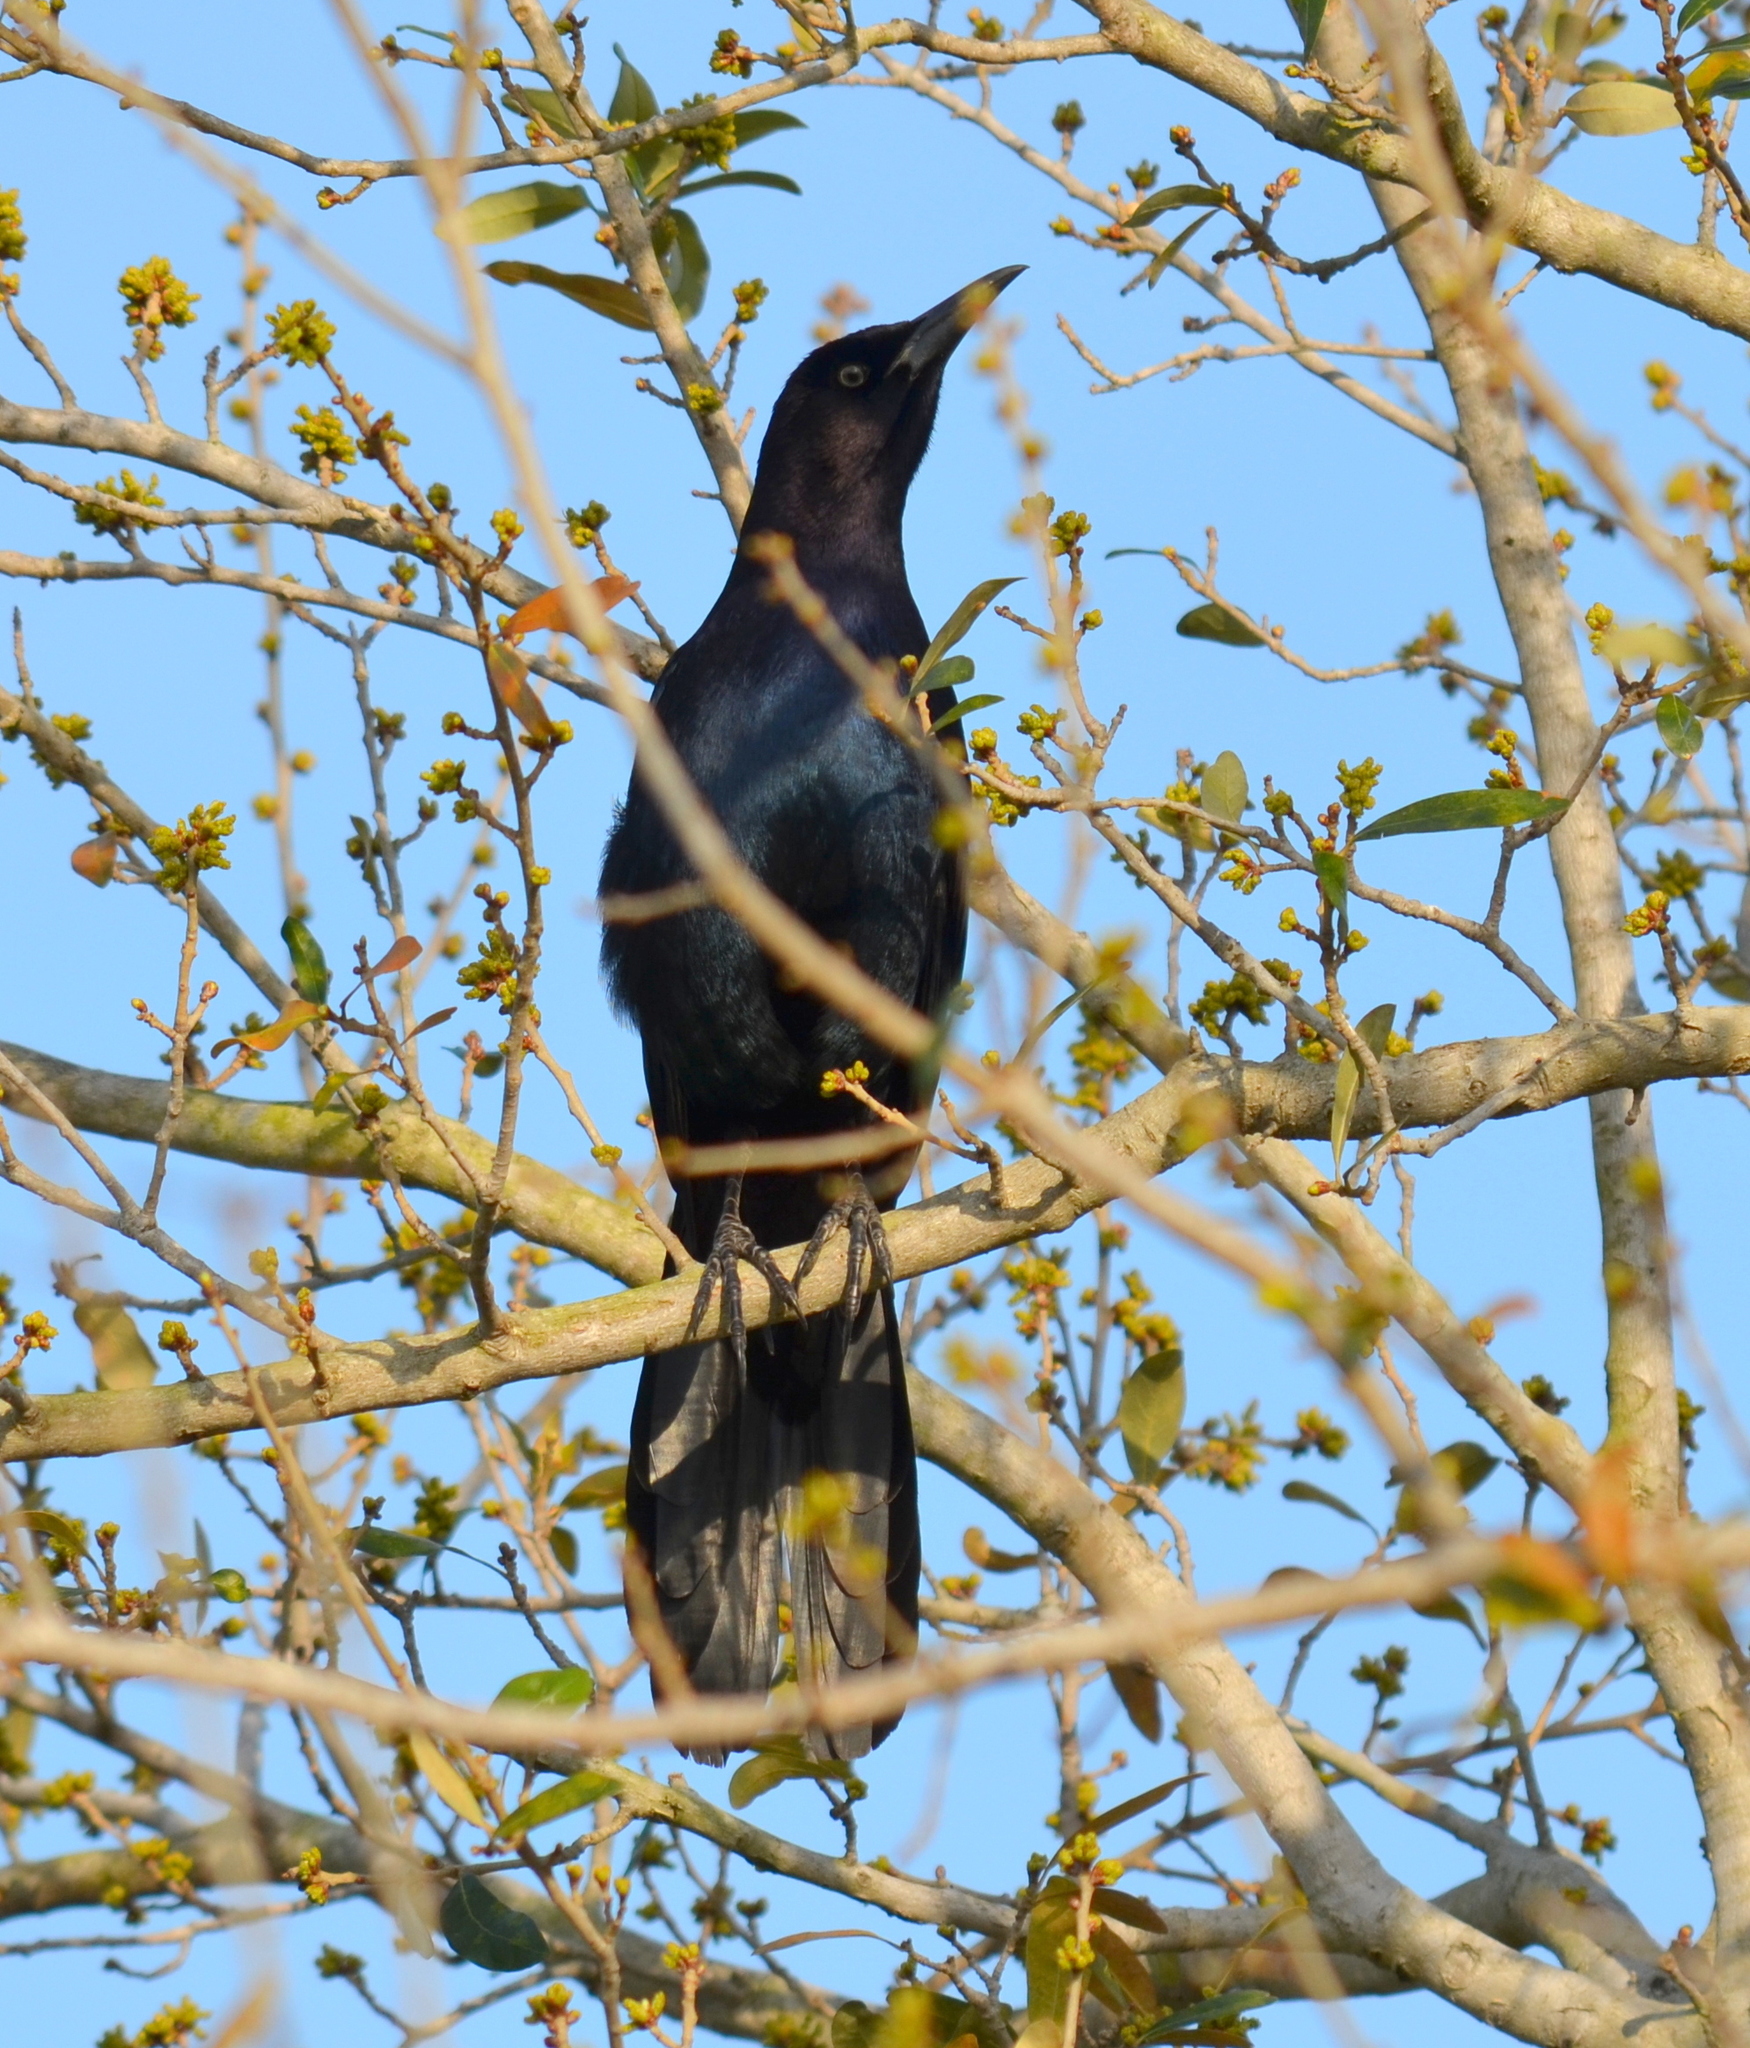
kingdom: Animalia
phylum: Chordata
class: Aves
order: Passeriformes
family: Icteridae
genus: Quiscalus
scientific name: Quiscalus major
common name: Boat-tailed grackle
